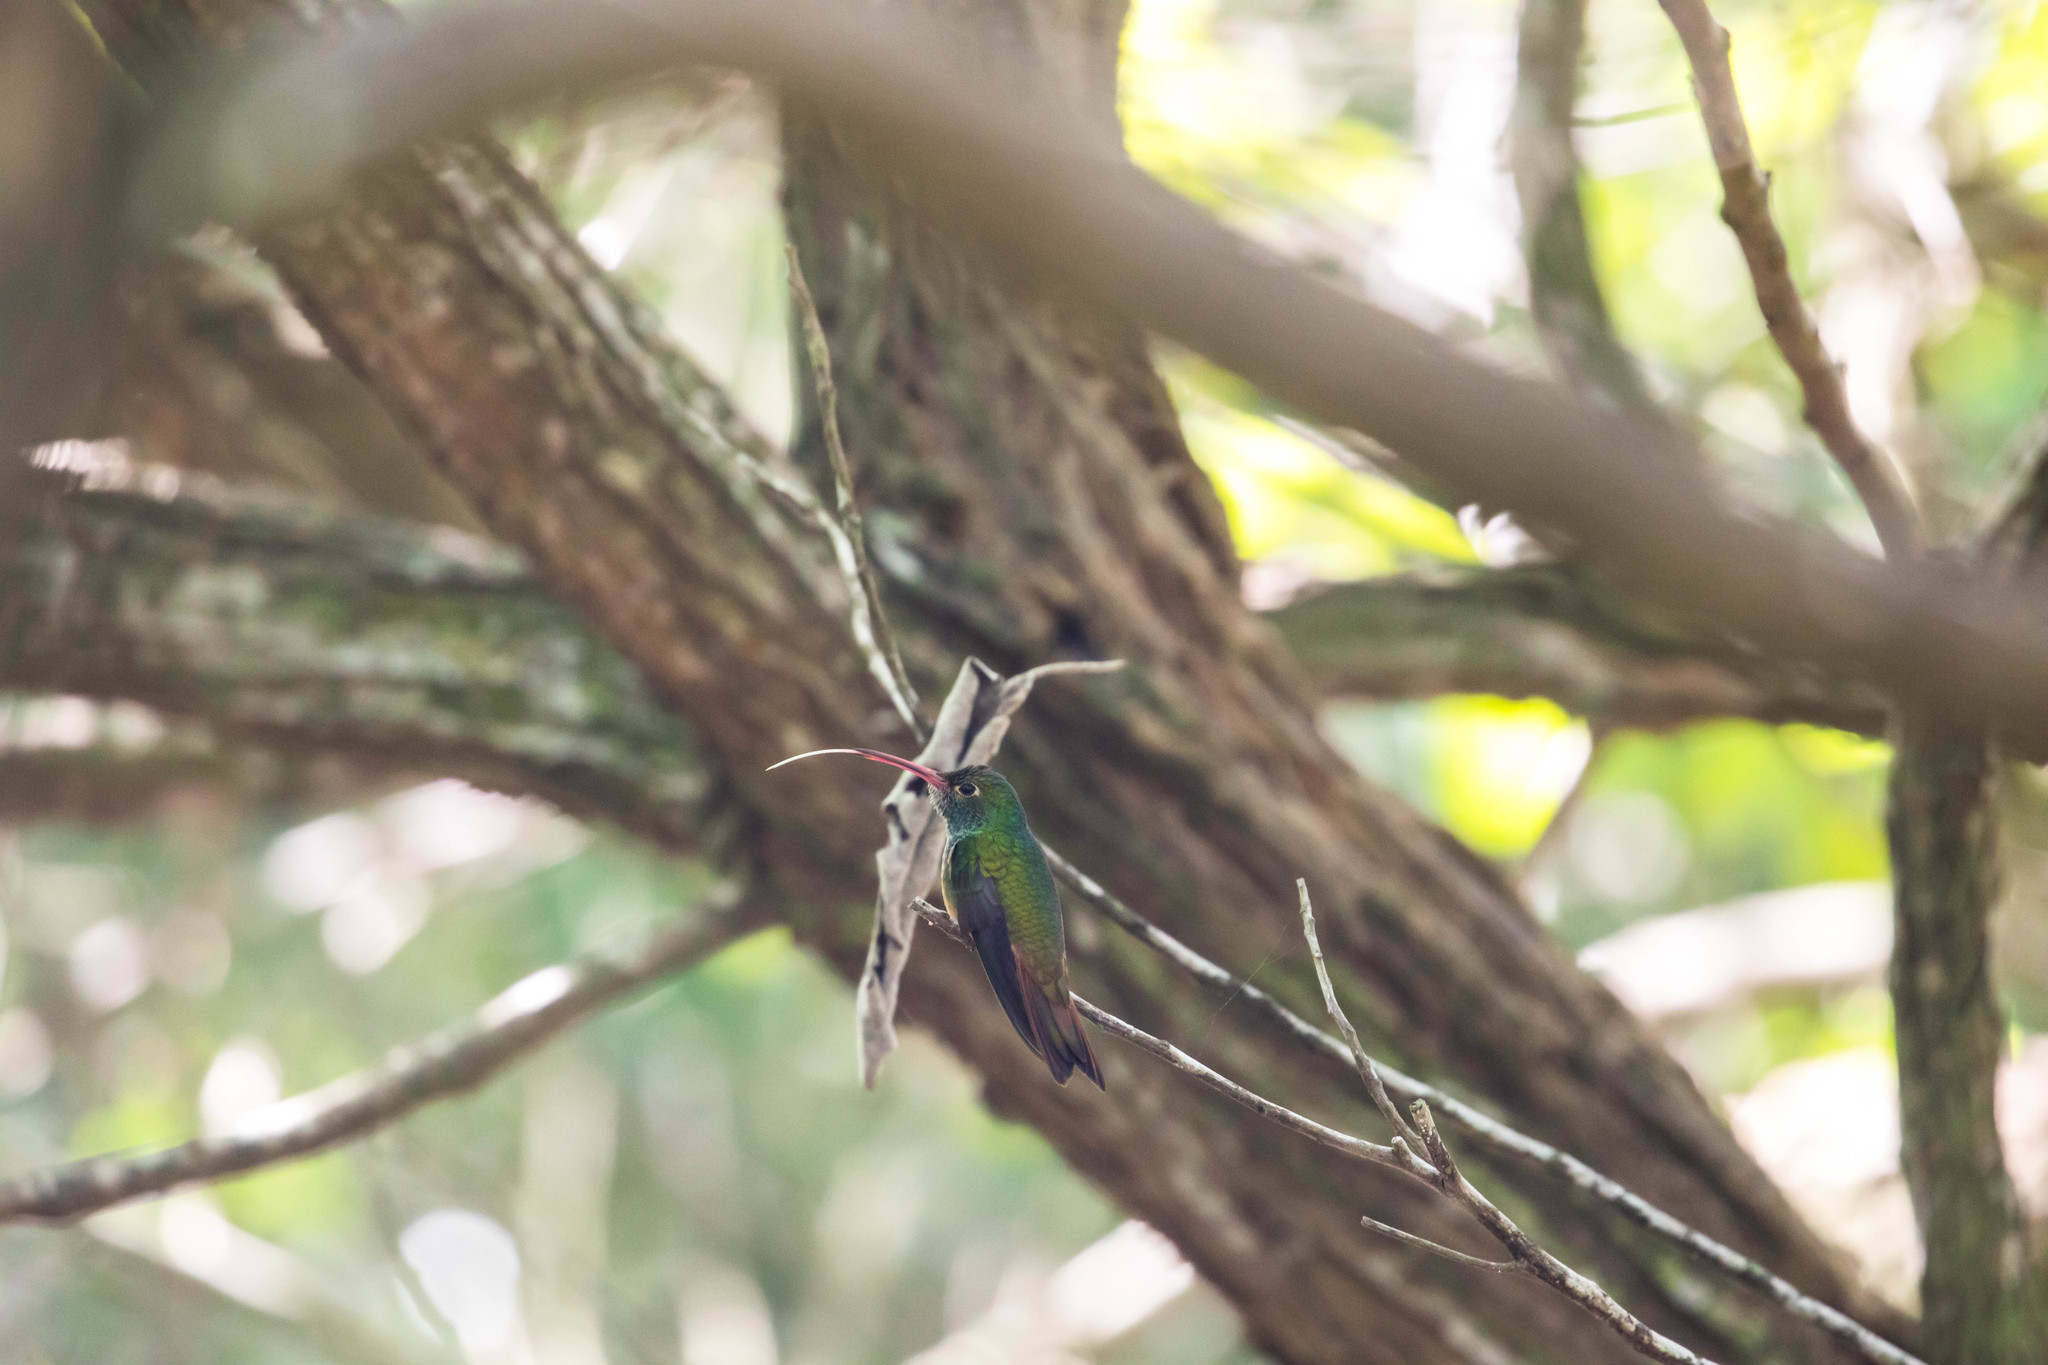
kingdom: Animalia
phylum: Chordata
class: Aves
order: Apodiformes
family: Trochilidae
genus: Amazilia
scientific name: Amazilia yucatanensis
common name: Buff-bellied hummingbird
